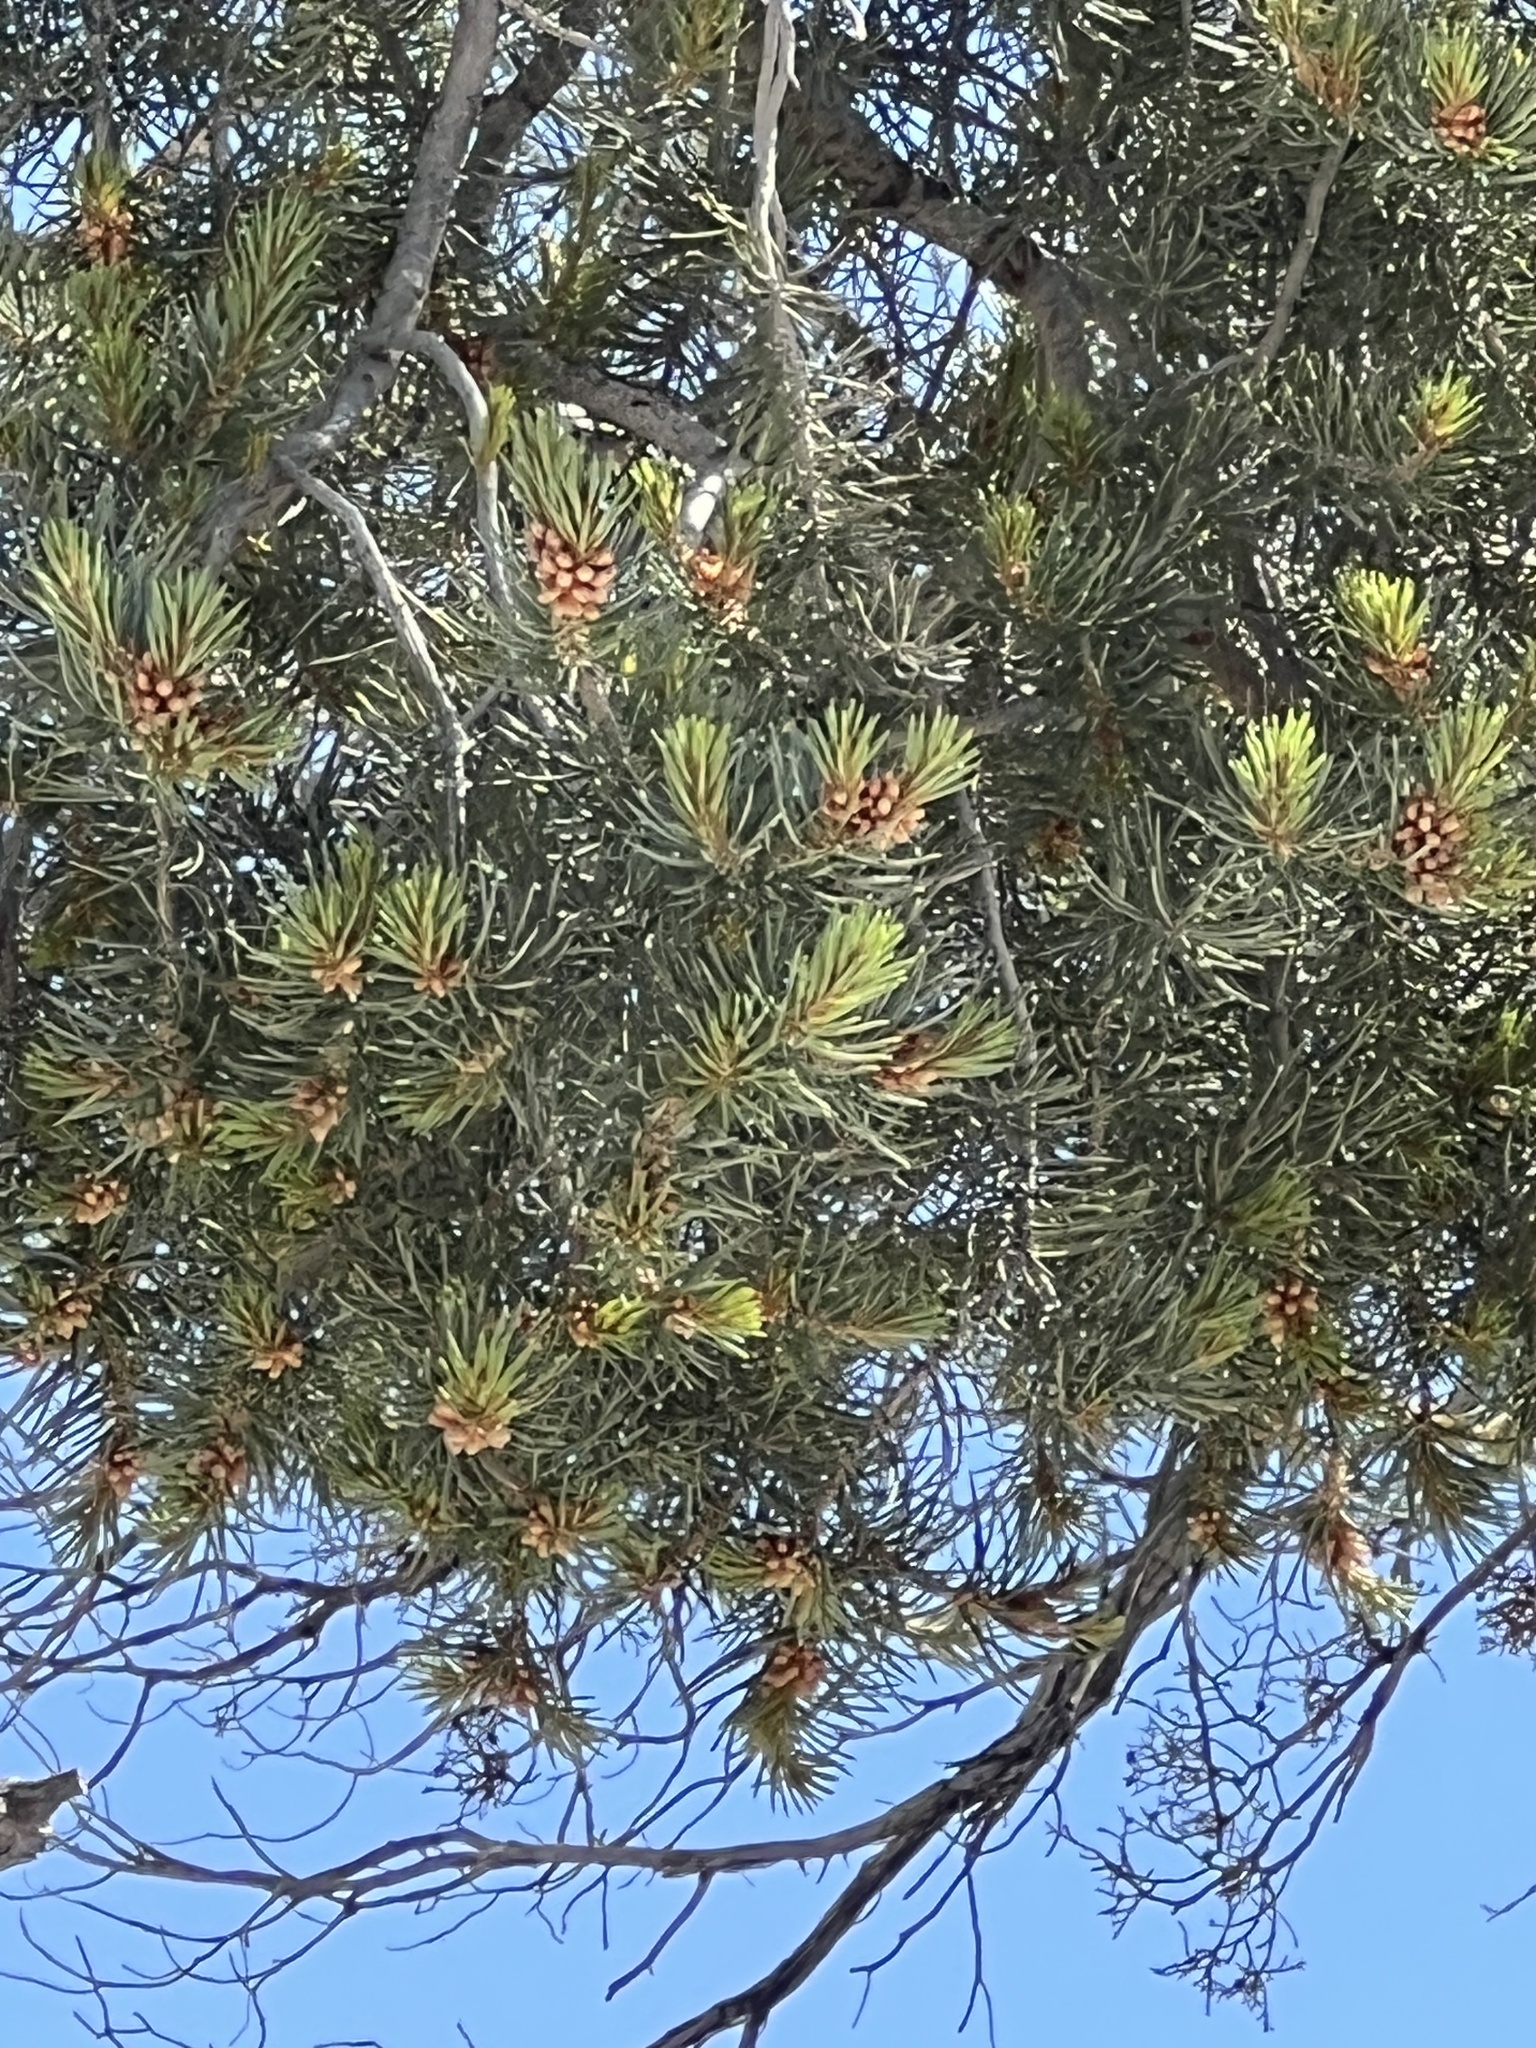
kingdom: Plantae
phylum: Tracheophyta
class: Pinopsida
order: Pinales
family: Pinaceae
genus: Pinus
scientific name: Pinus monophylla
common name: One-leaved nut pine
